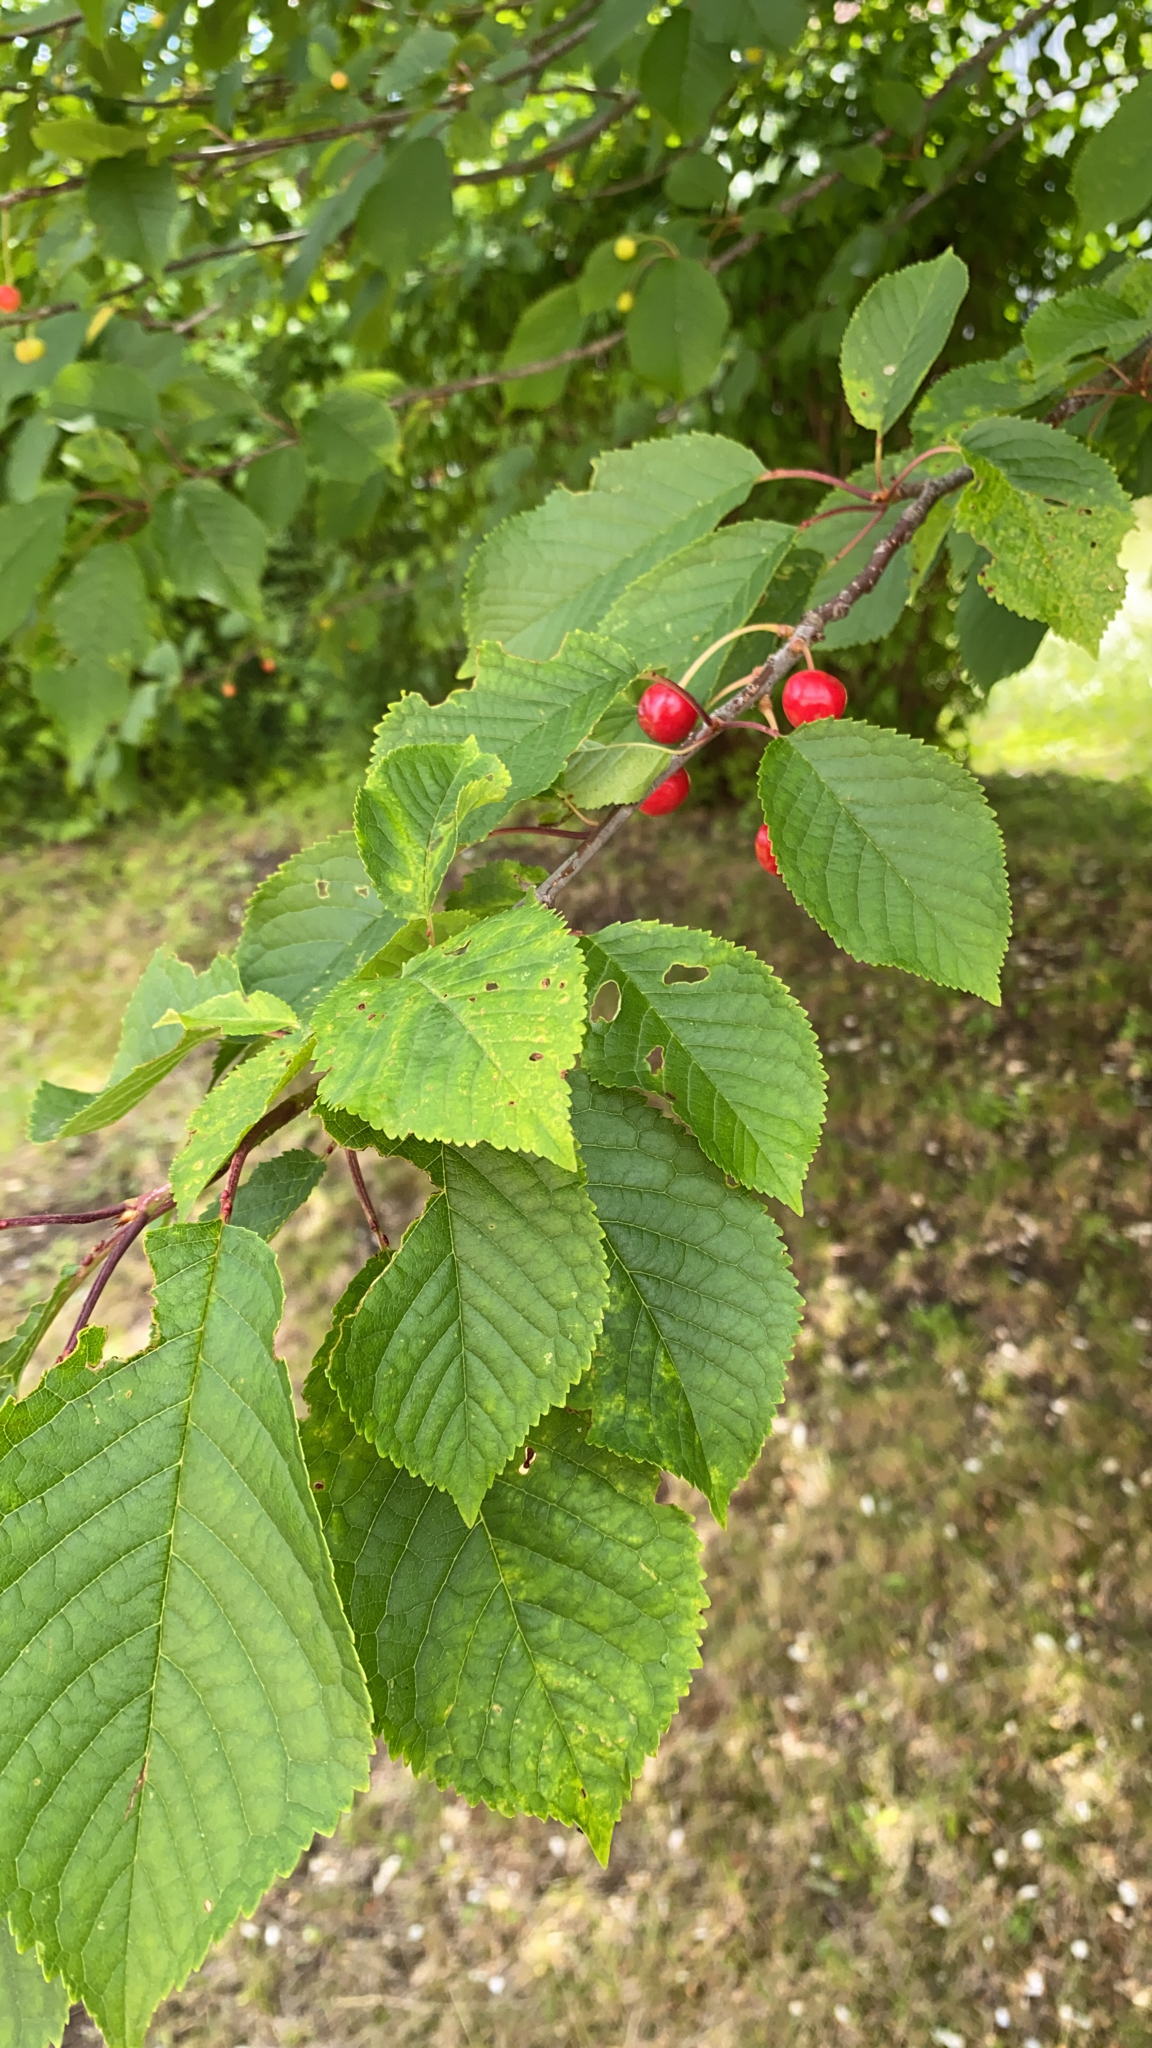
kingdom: Plantae
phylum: Tracheophyta
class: Magnoliopsida
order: Rosales
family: Rosaceae
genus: Prunus
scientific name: Prunus avium
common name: Sweet cherry
